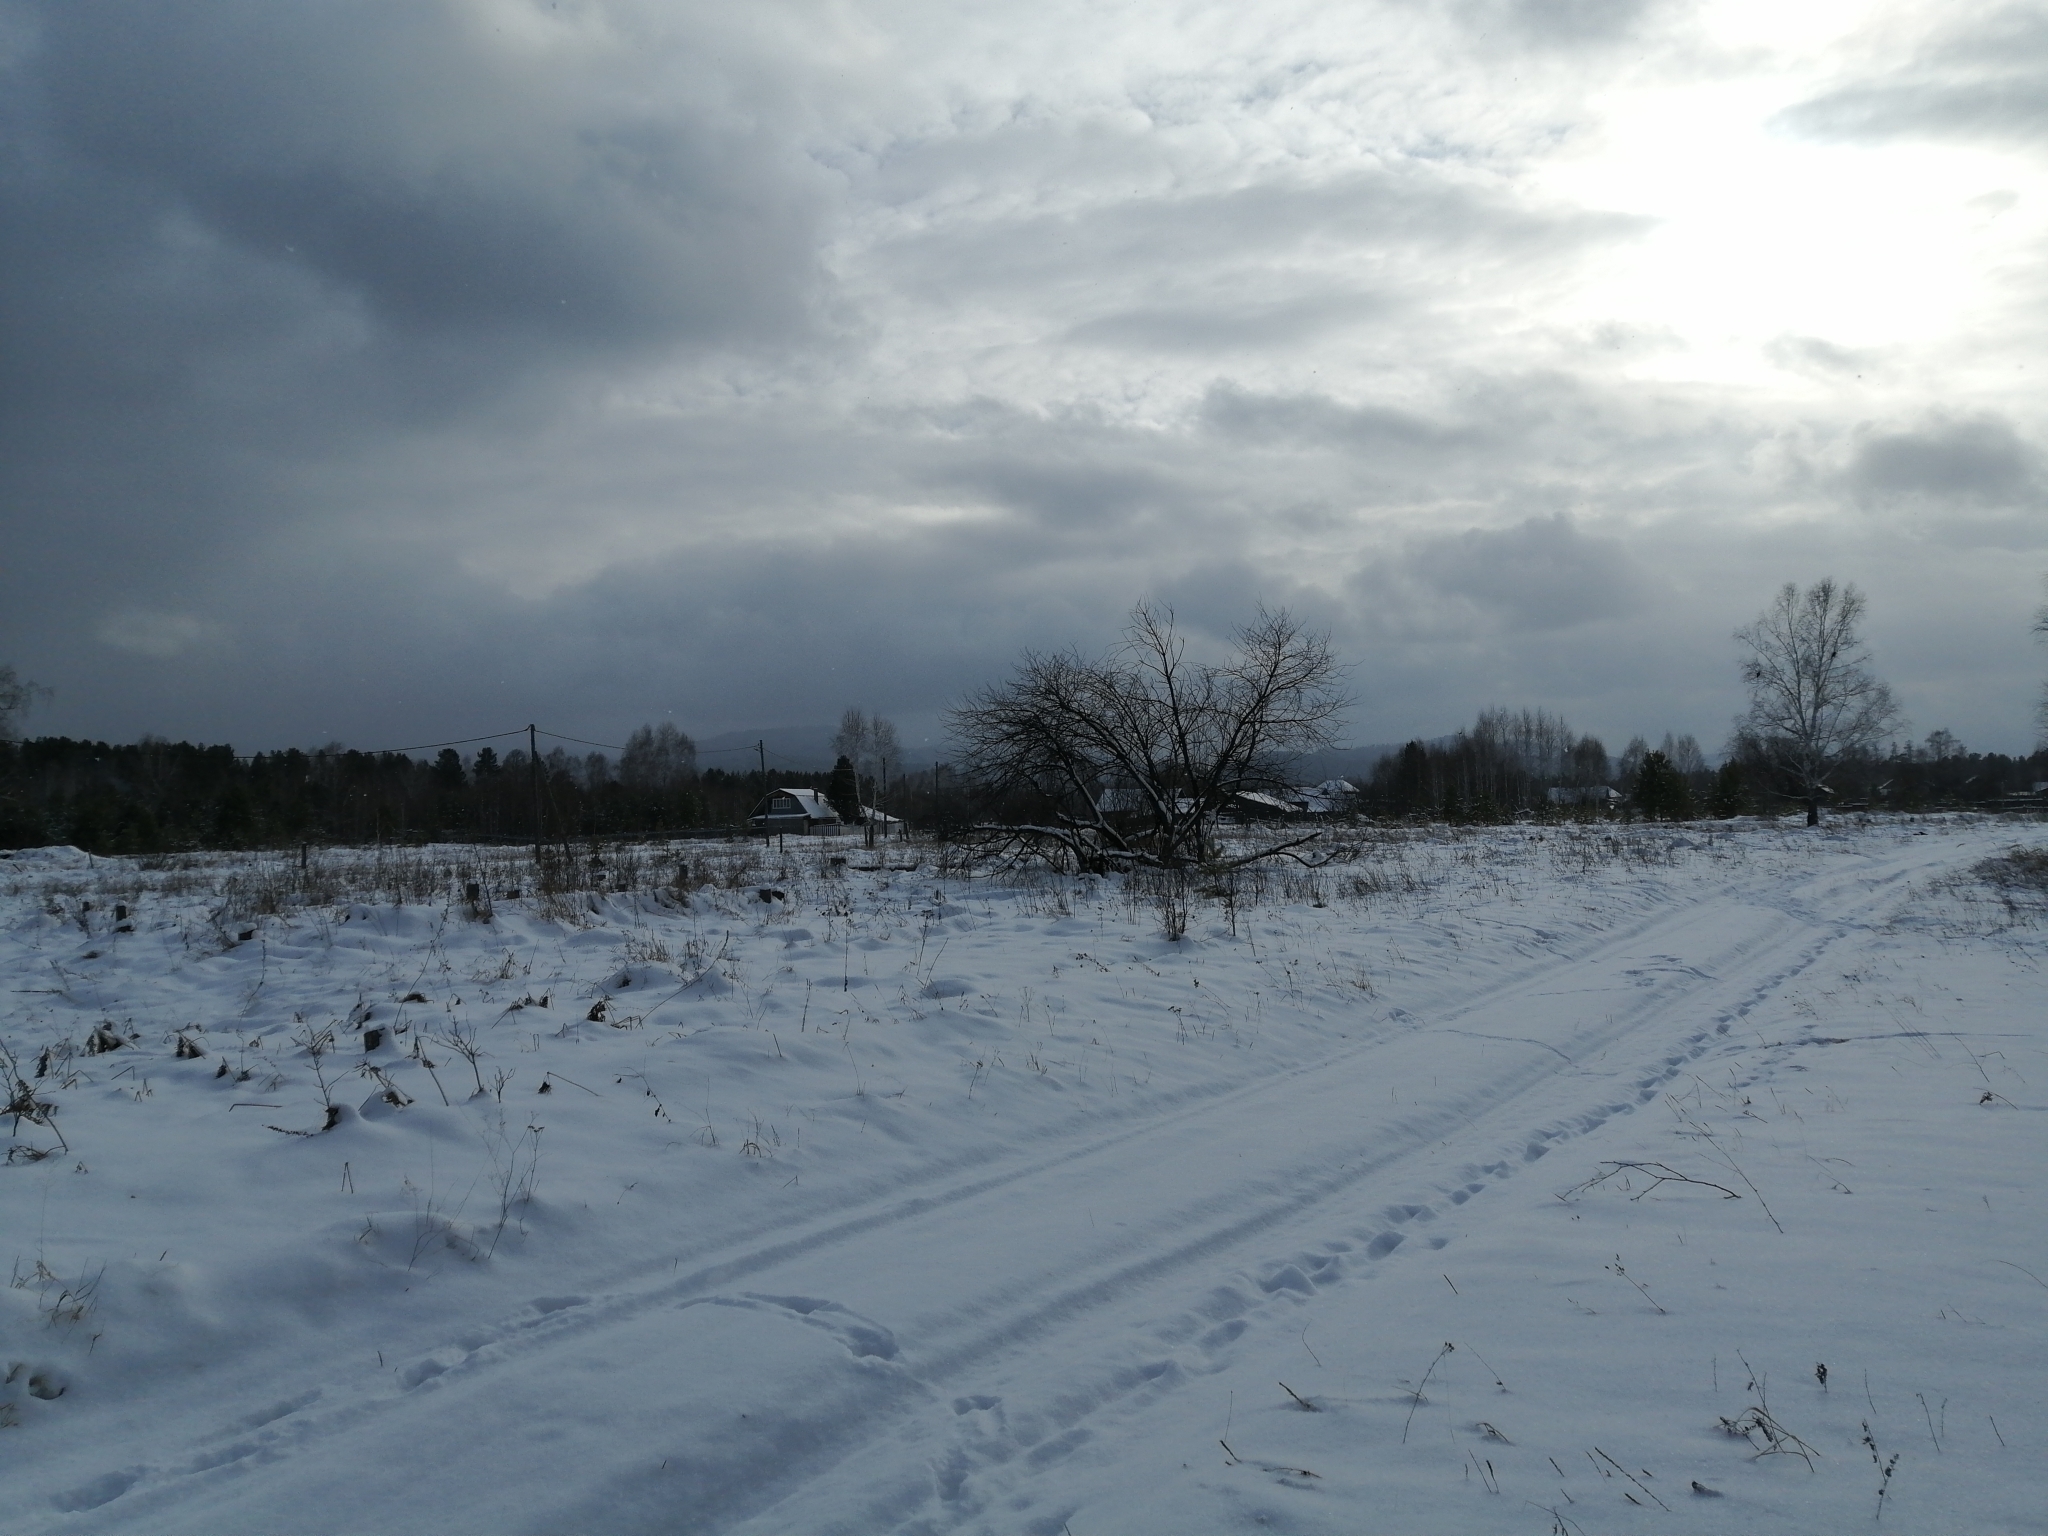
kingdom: Plantae
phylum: Tracheophyta
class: Magnoliopsida
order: Rosales
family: Rosaceae
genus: Prunus
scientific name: Prunus padus
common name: Bird cherry
